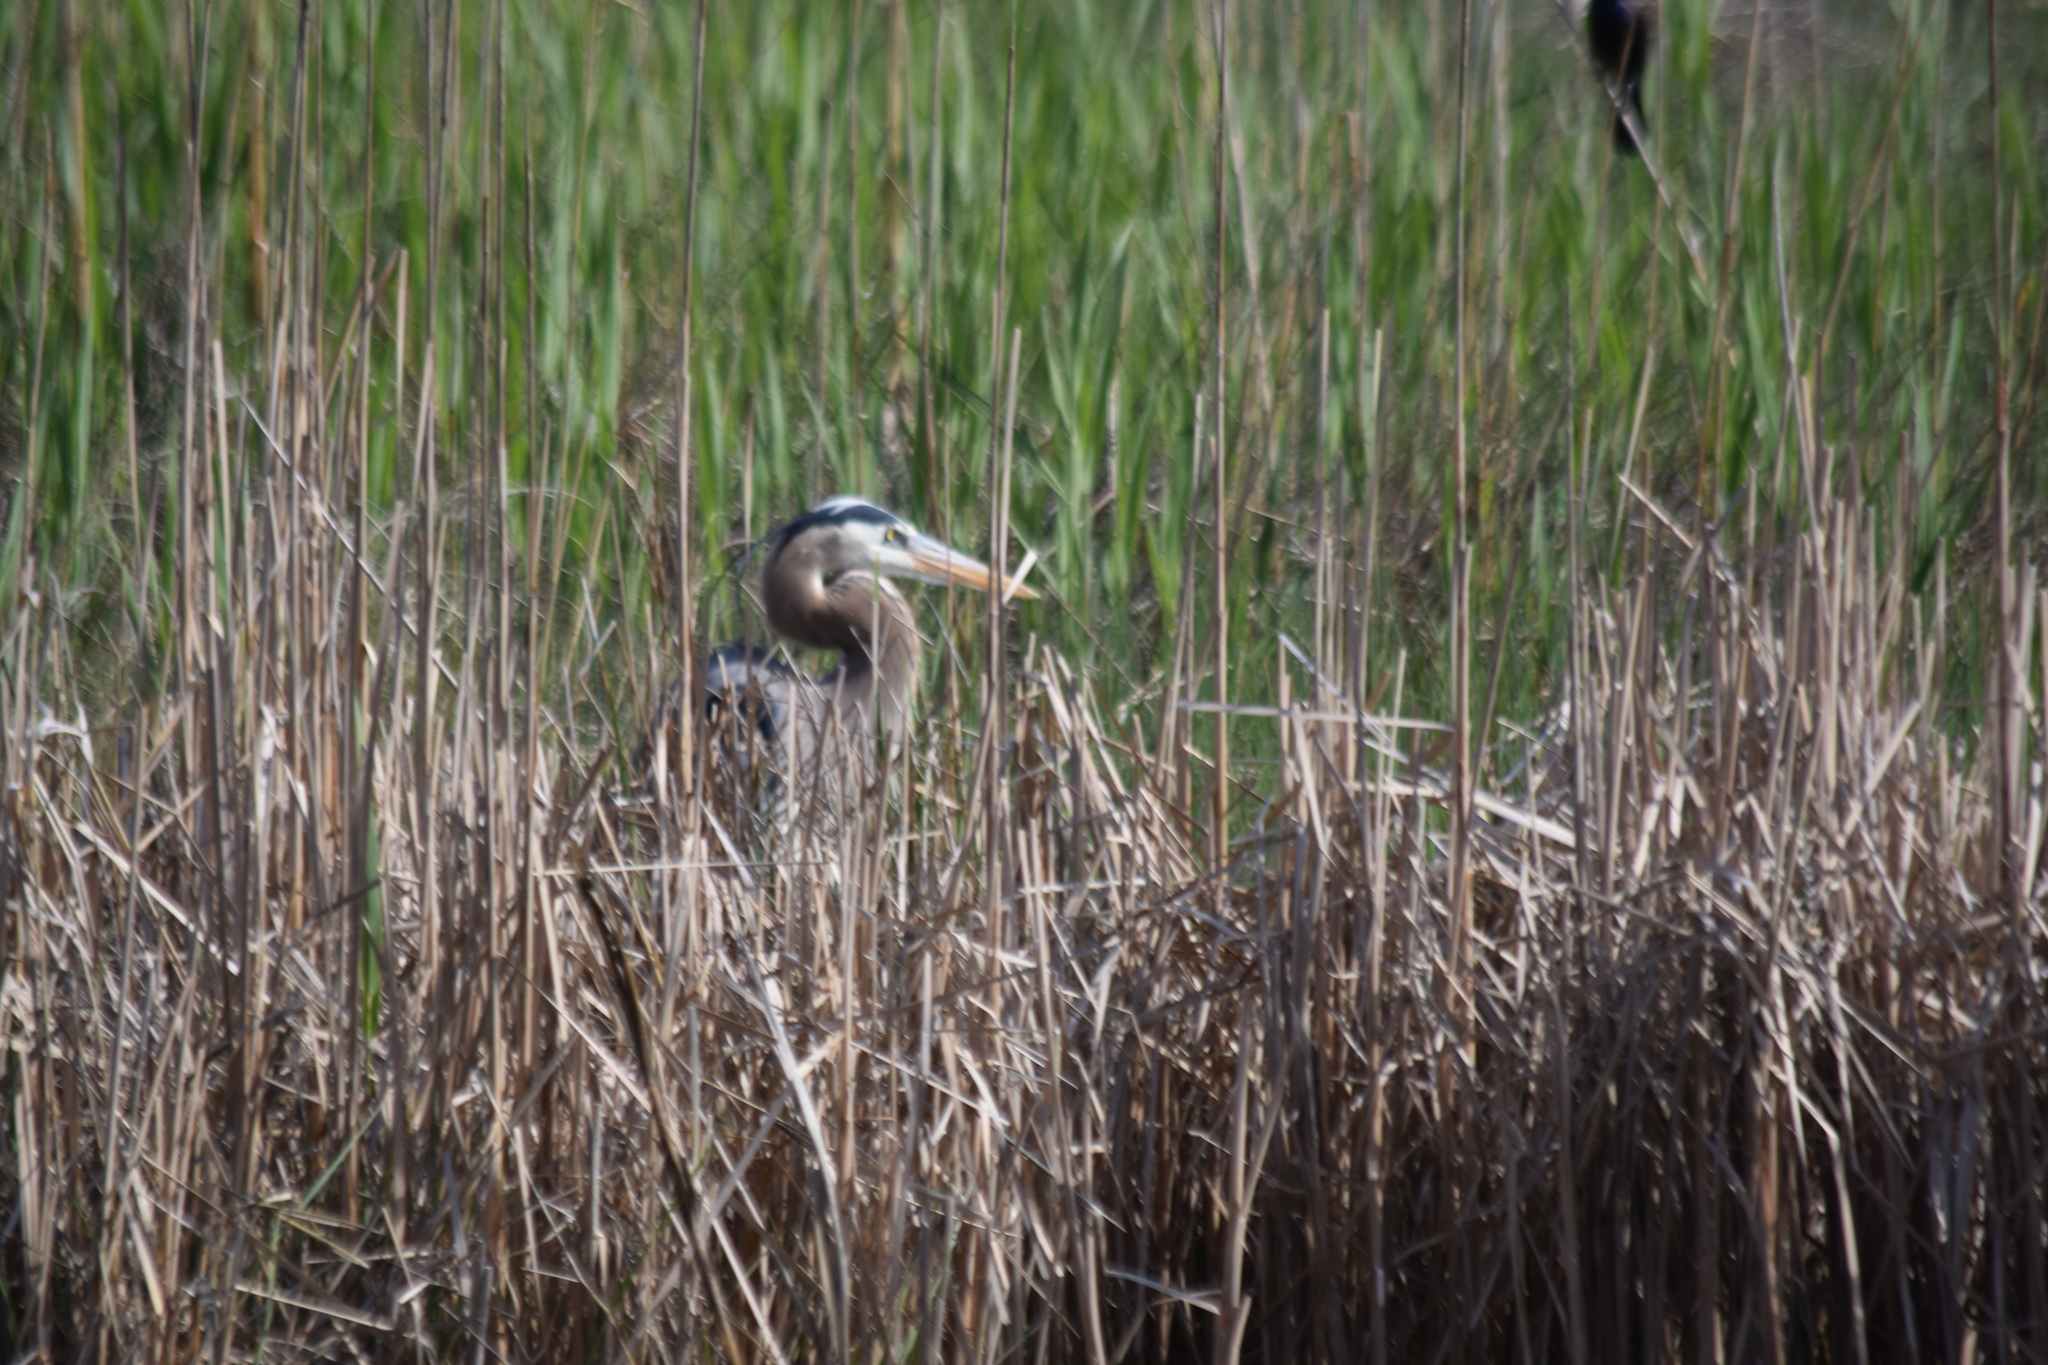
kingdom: Animalia
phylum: Chordata
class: Aves
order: Pelecaniformes
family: Ardeidae
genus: Ardea
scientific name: Ardea herodias
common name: Great blue heron
